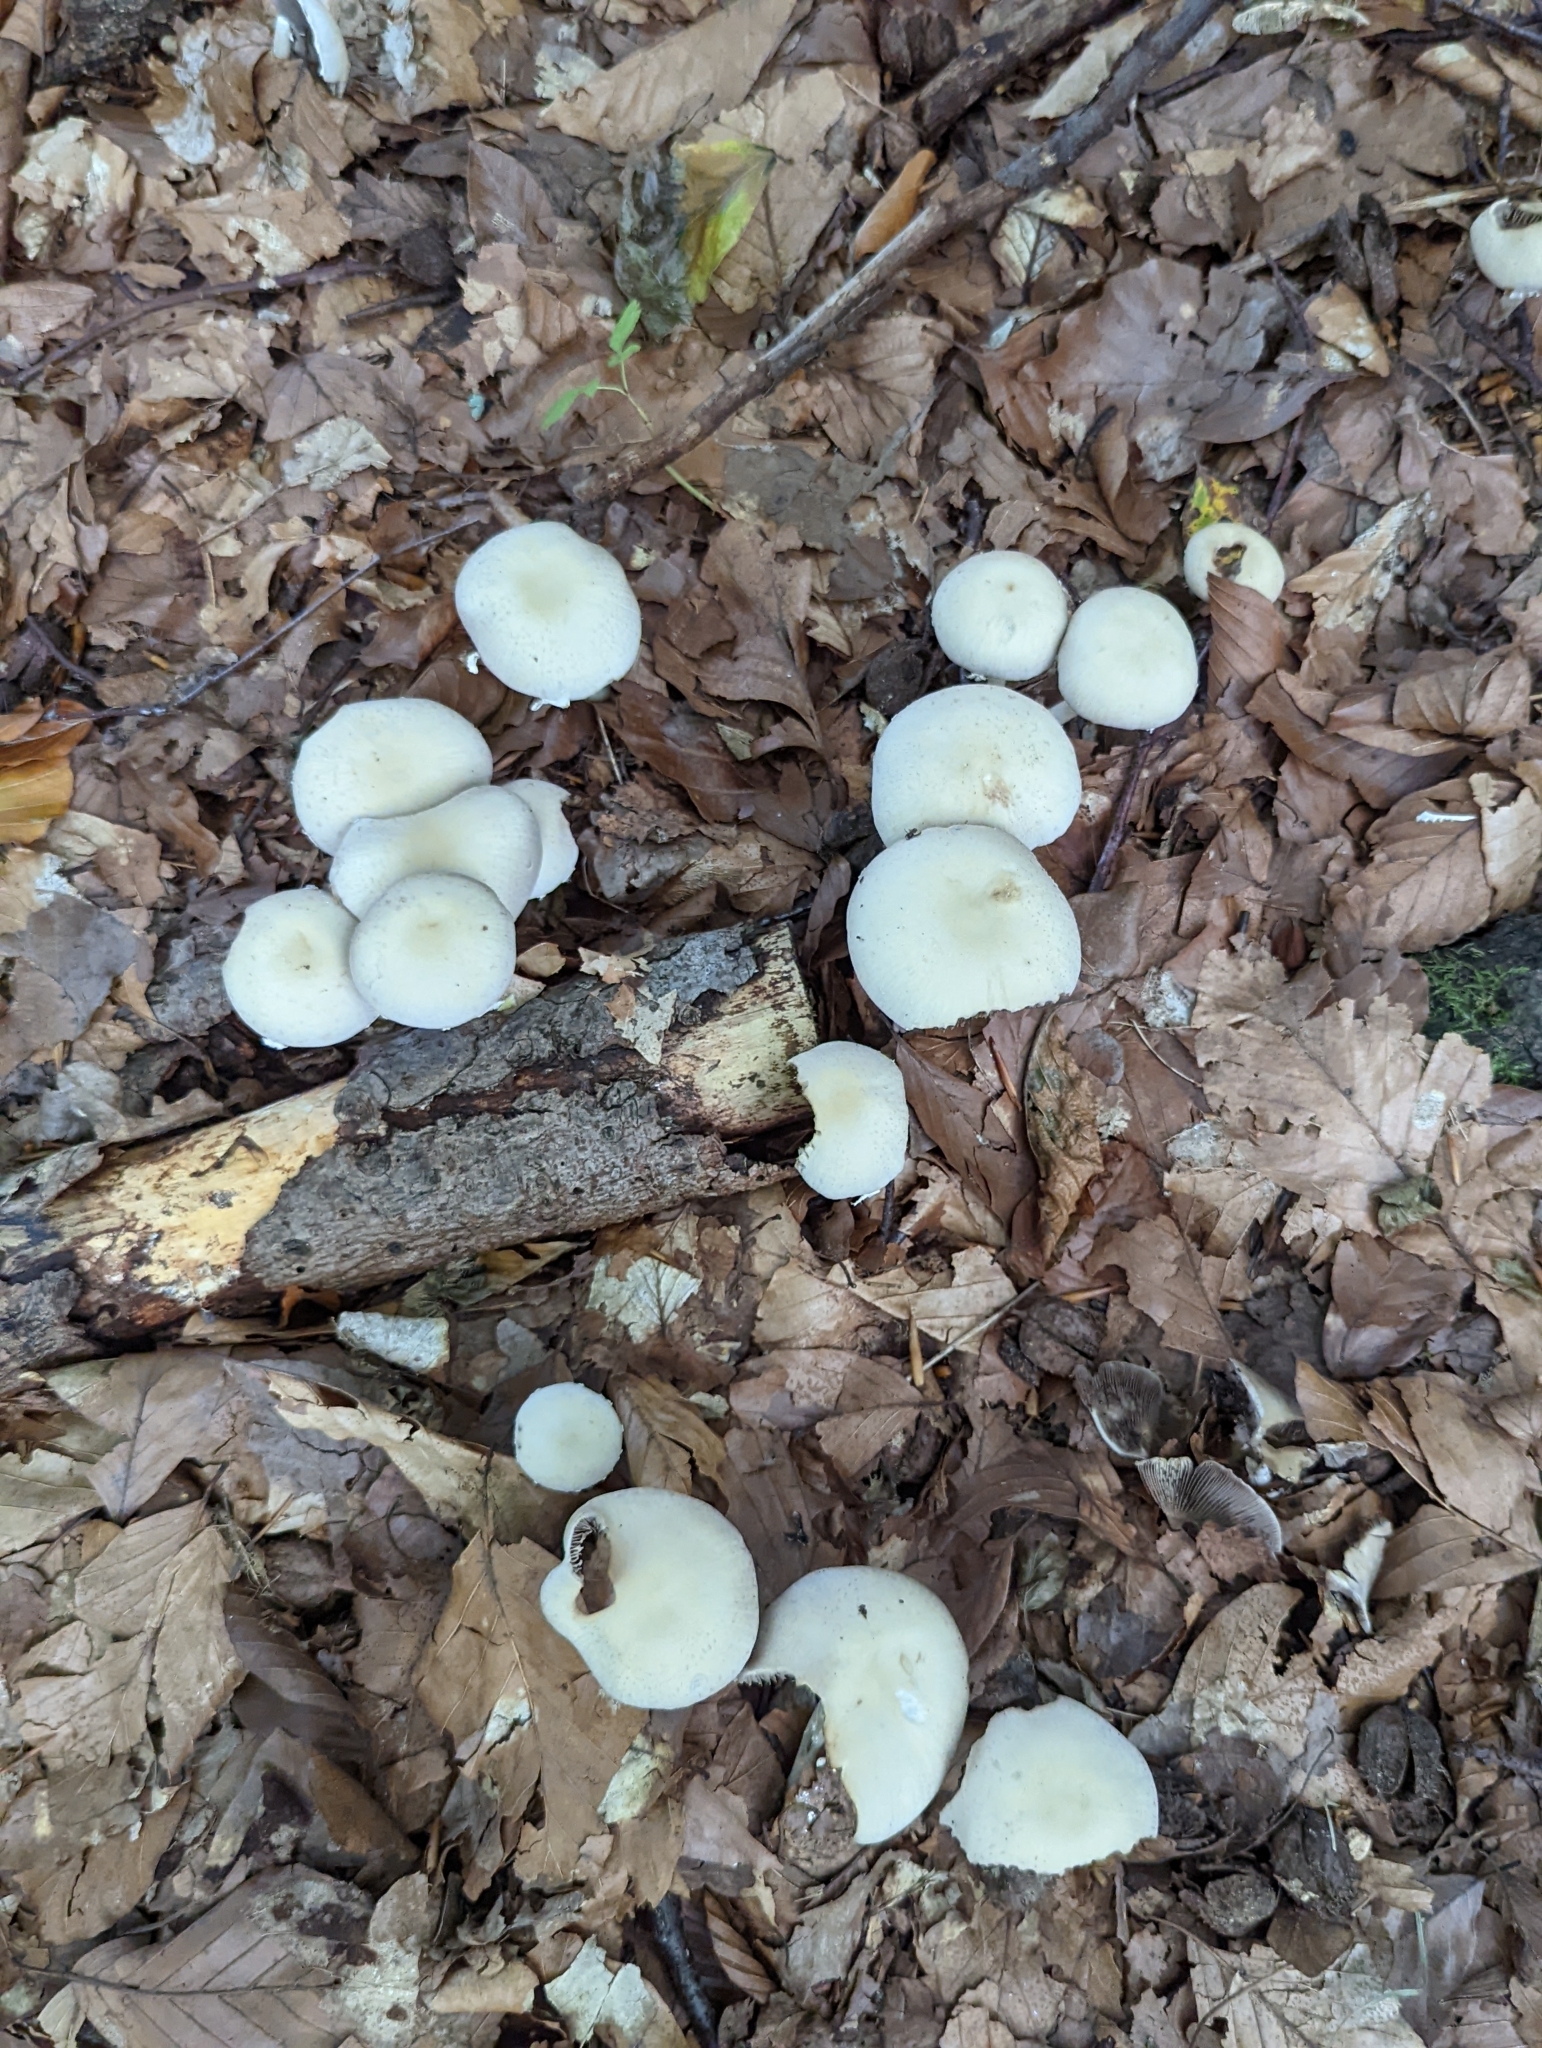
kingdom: Fungi
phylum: Basidiomycota
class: Agaricomycetes
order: Agaricales
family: Psathyrellaceae
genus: Candolleomyces
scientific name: Candolleomyces candolleanus
